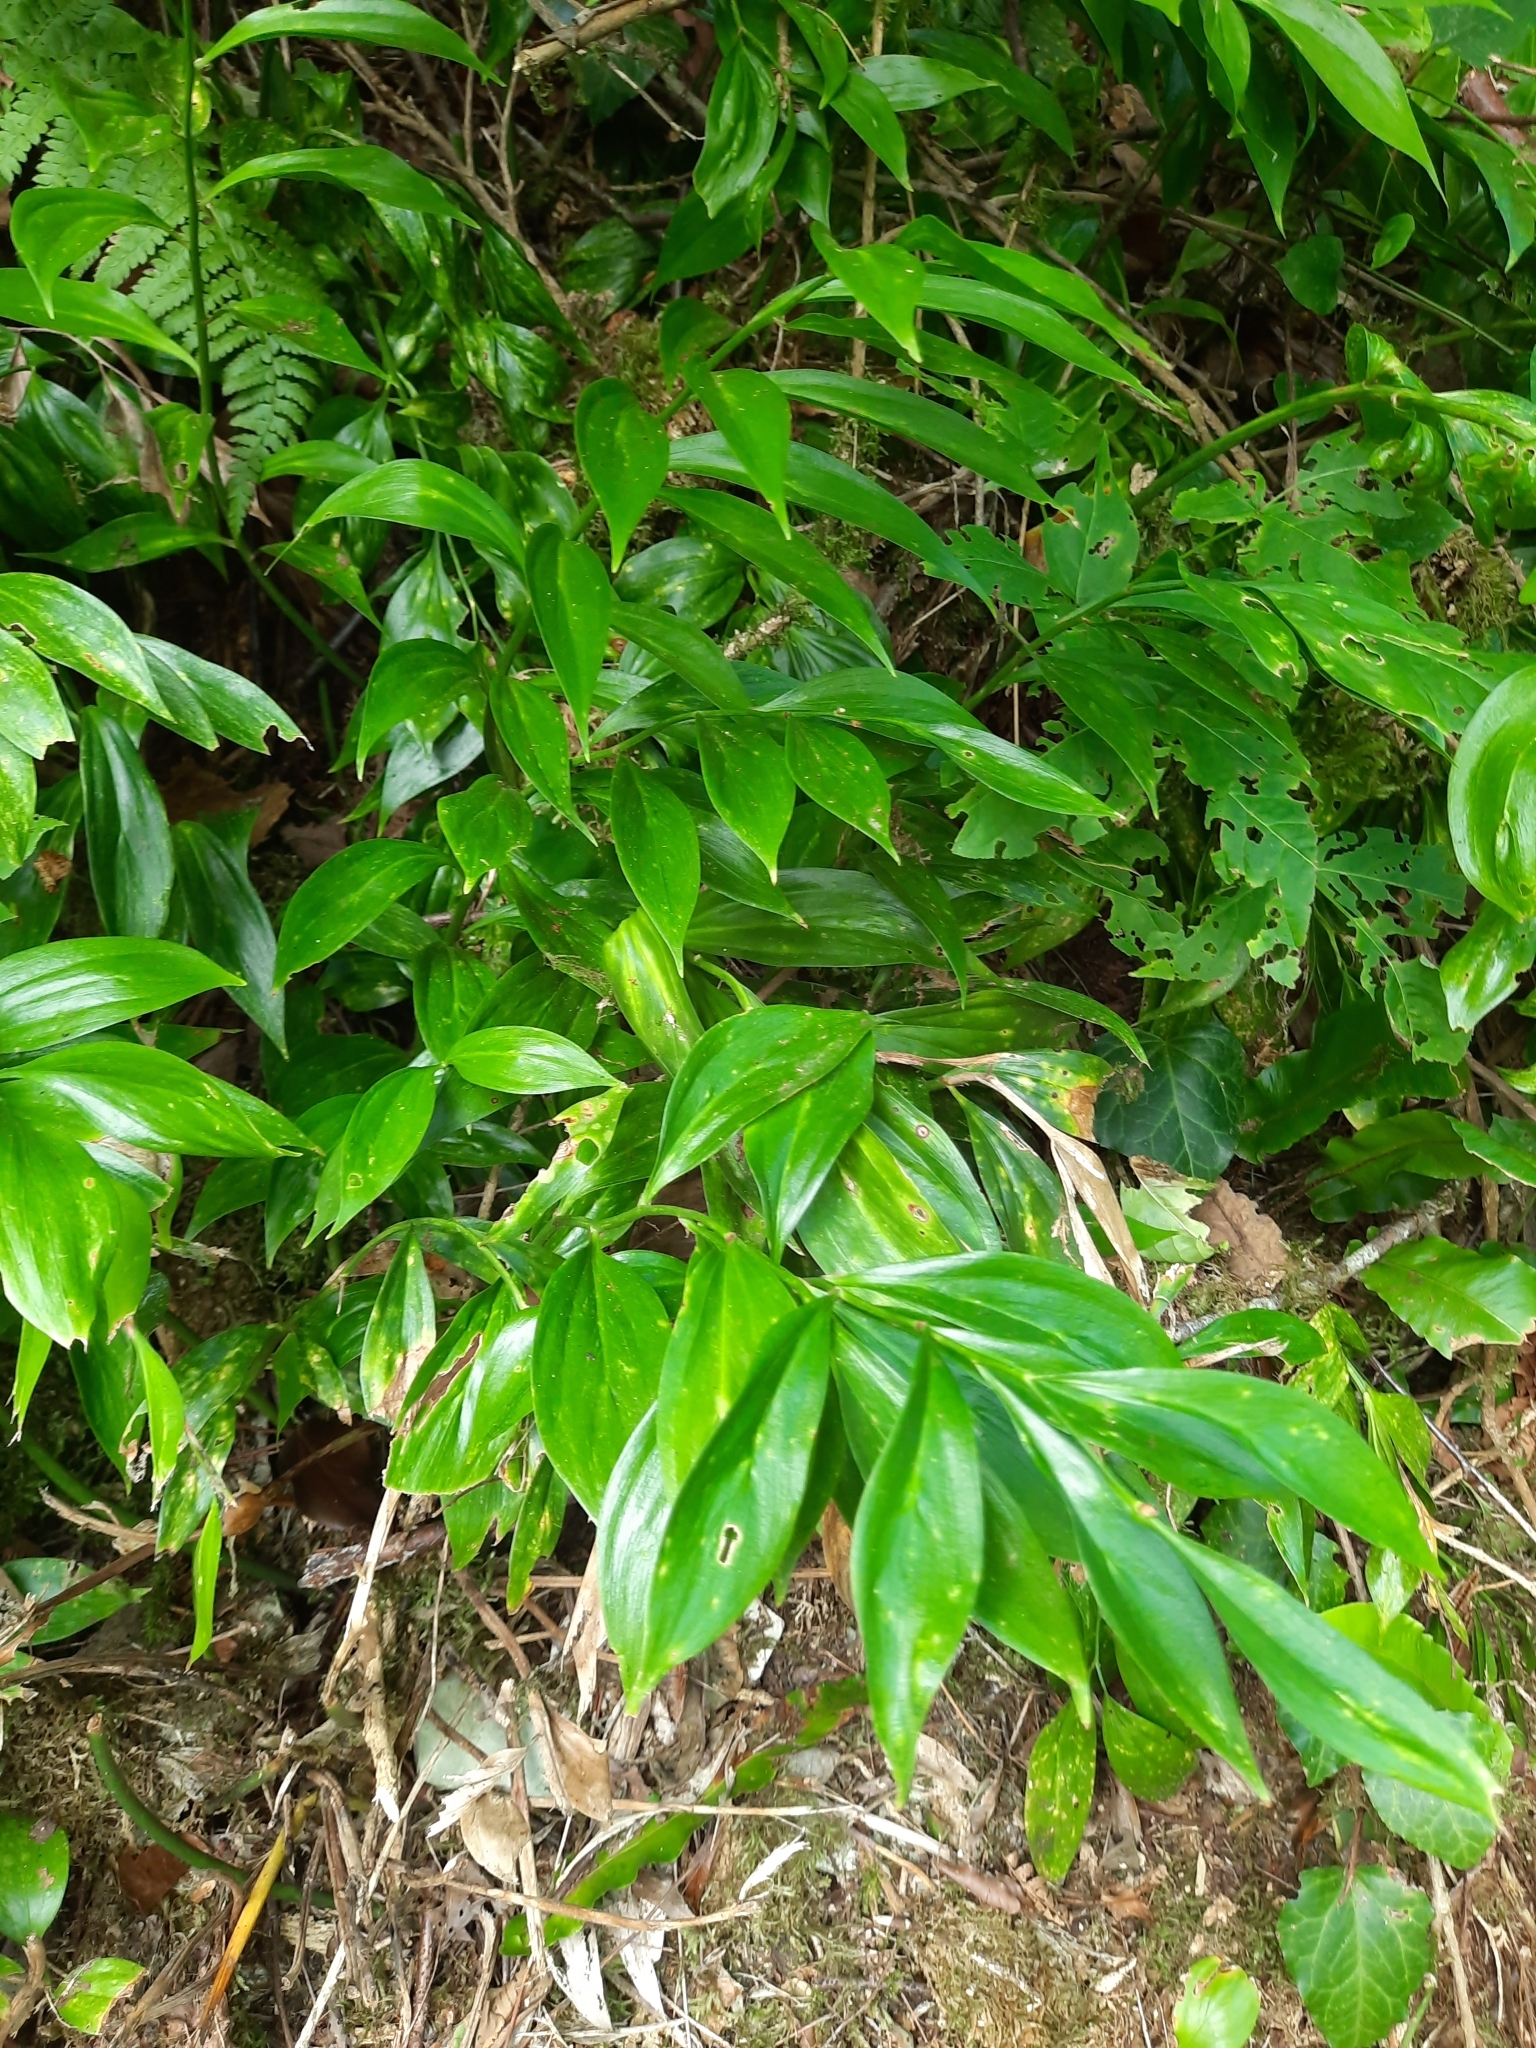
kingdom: Plantae
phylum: Tracheophyta
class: Liliopsida
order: Asparagales
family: Asparagaceae
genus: Ruscus
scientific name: Ruscus colchicus
